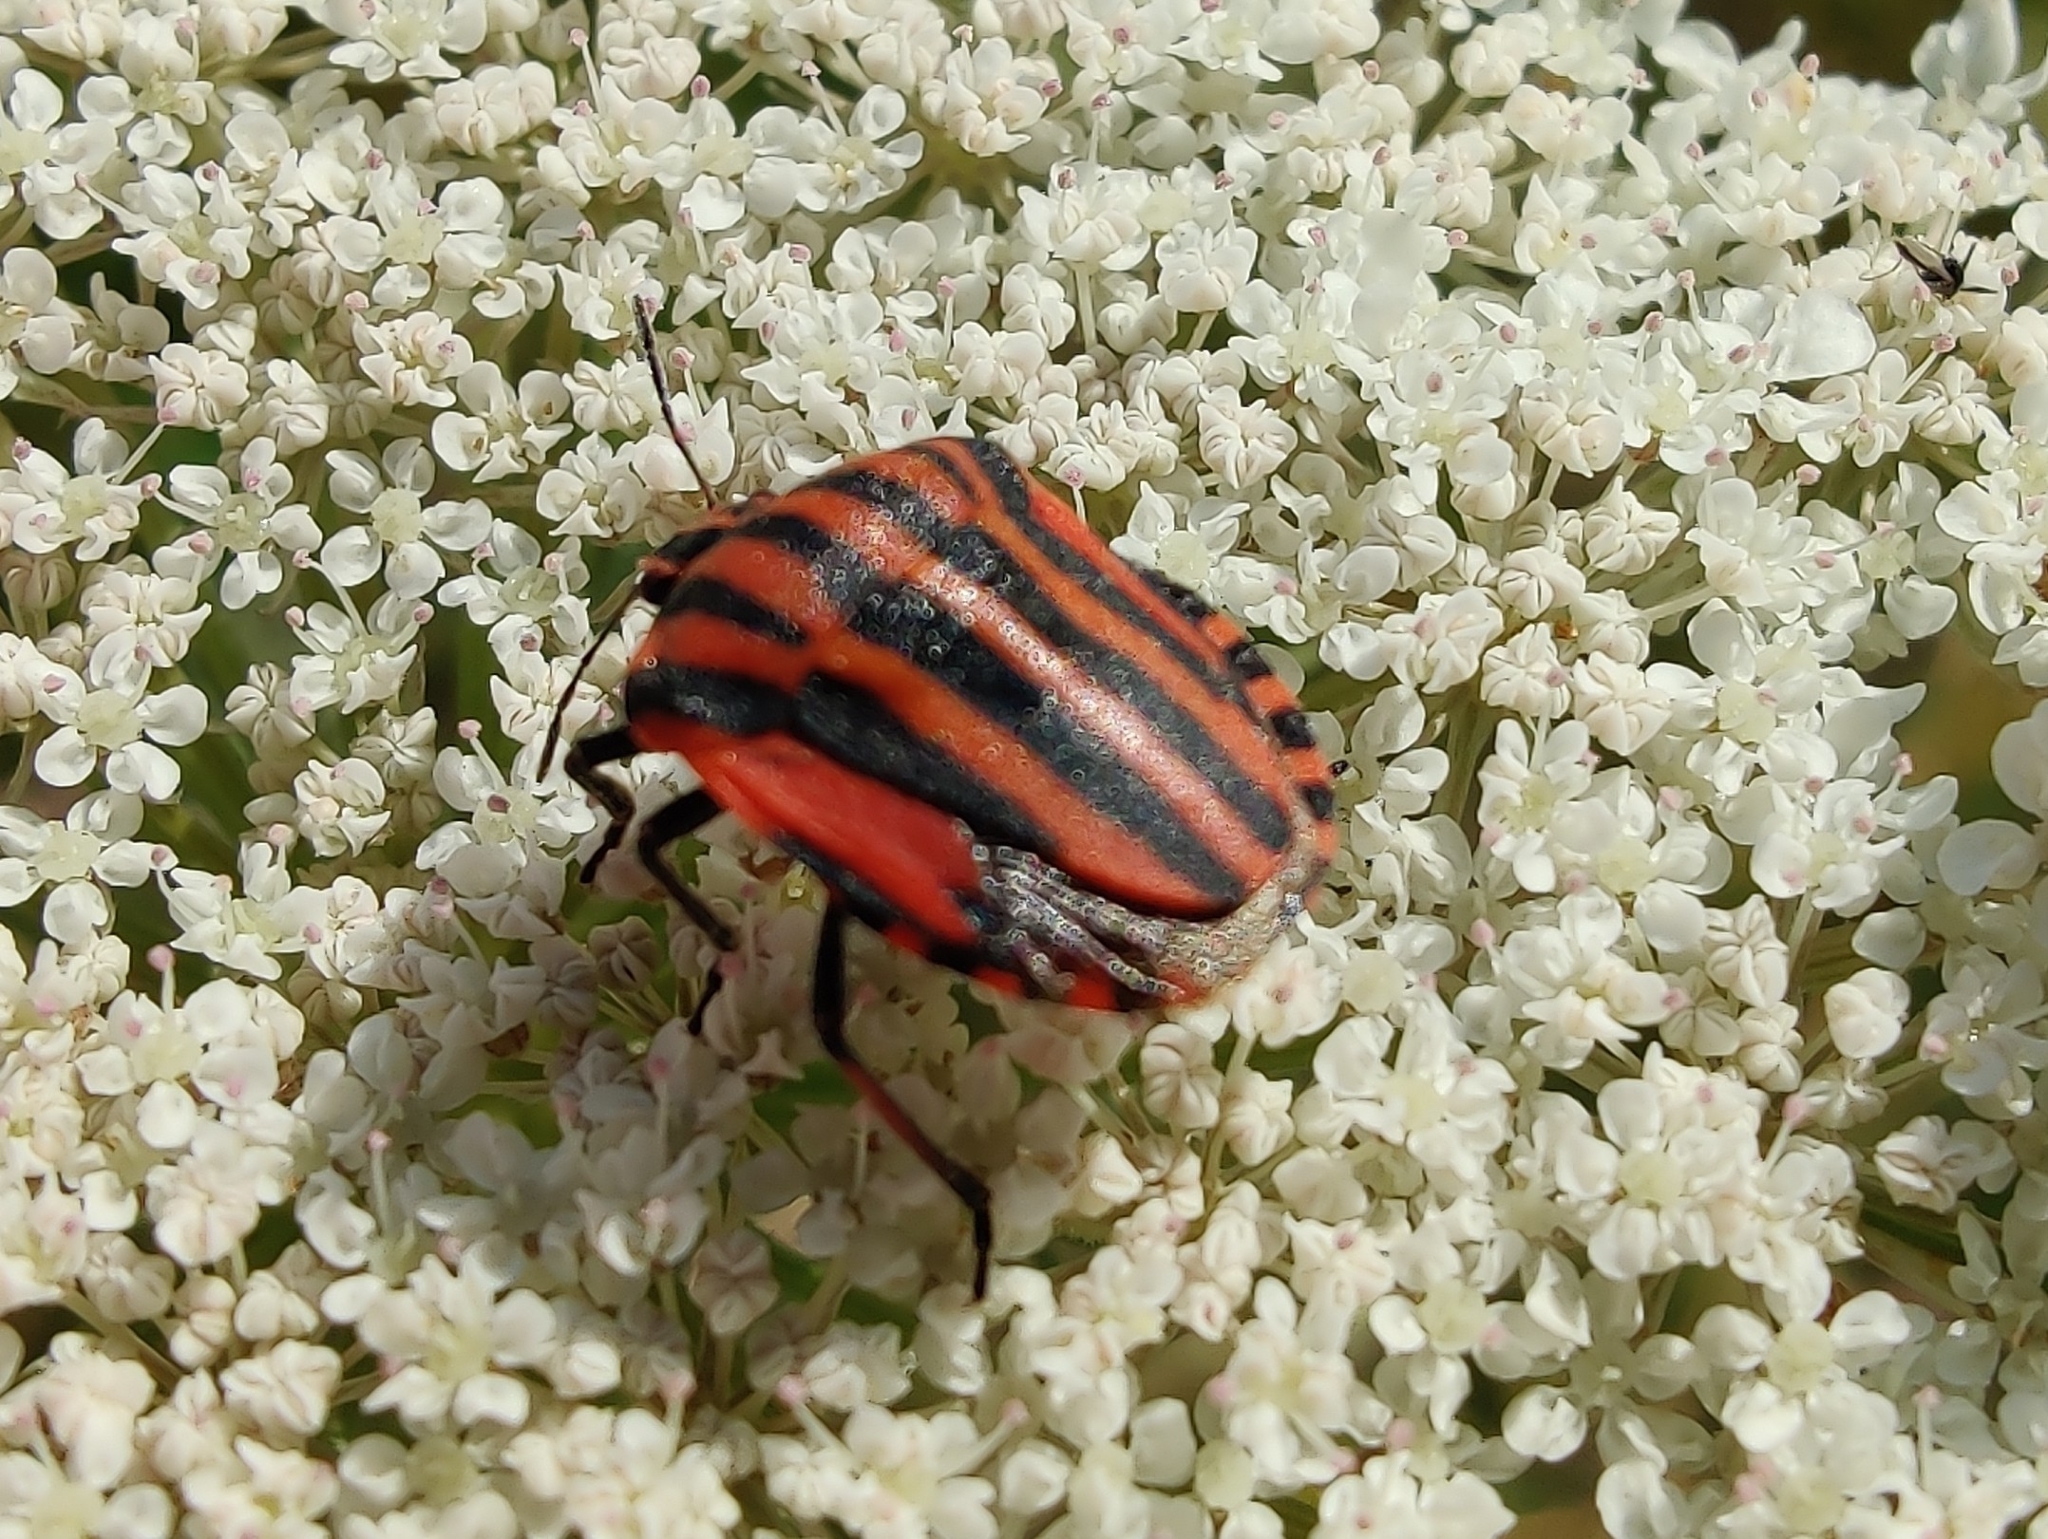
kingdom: Animalia
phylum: Arthropoda
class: Insecta
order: Hemiptera
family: Pentatomidae
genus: Graphosoma
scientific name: Graphosoma italicum
